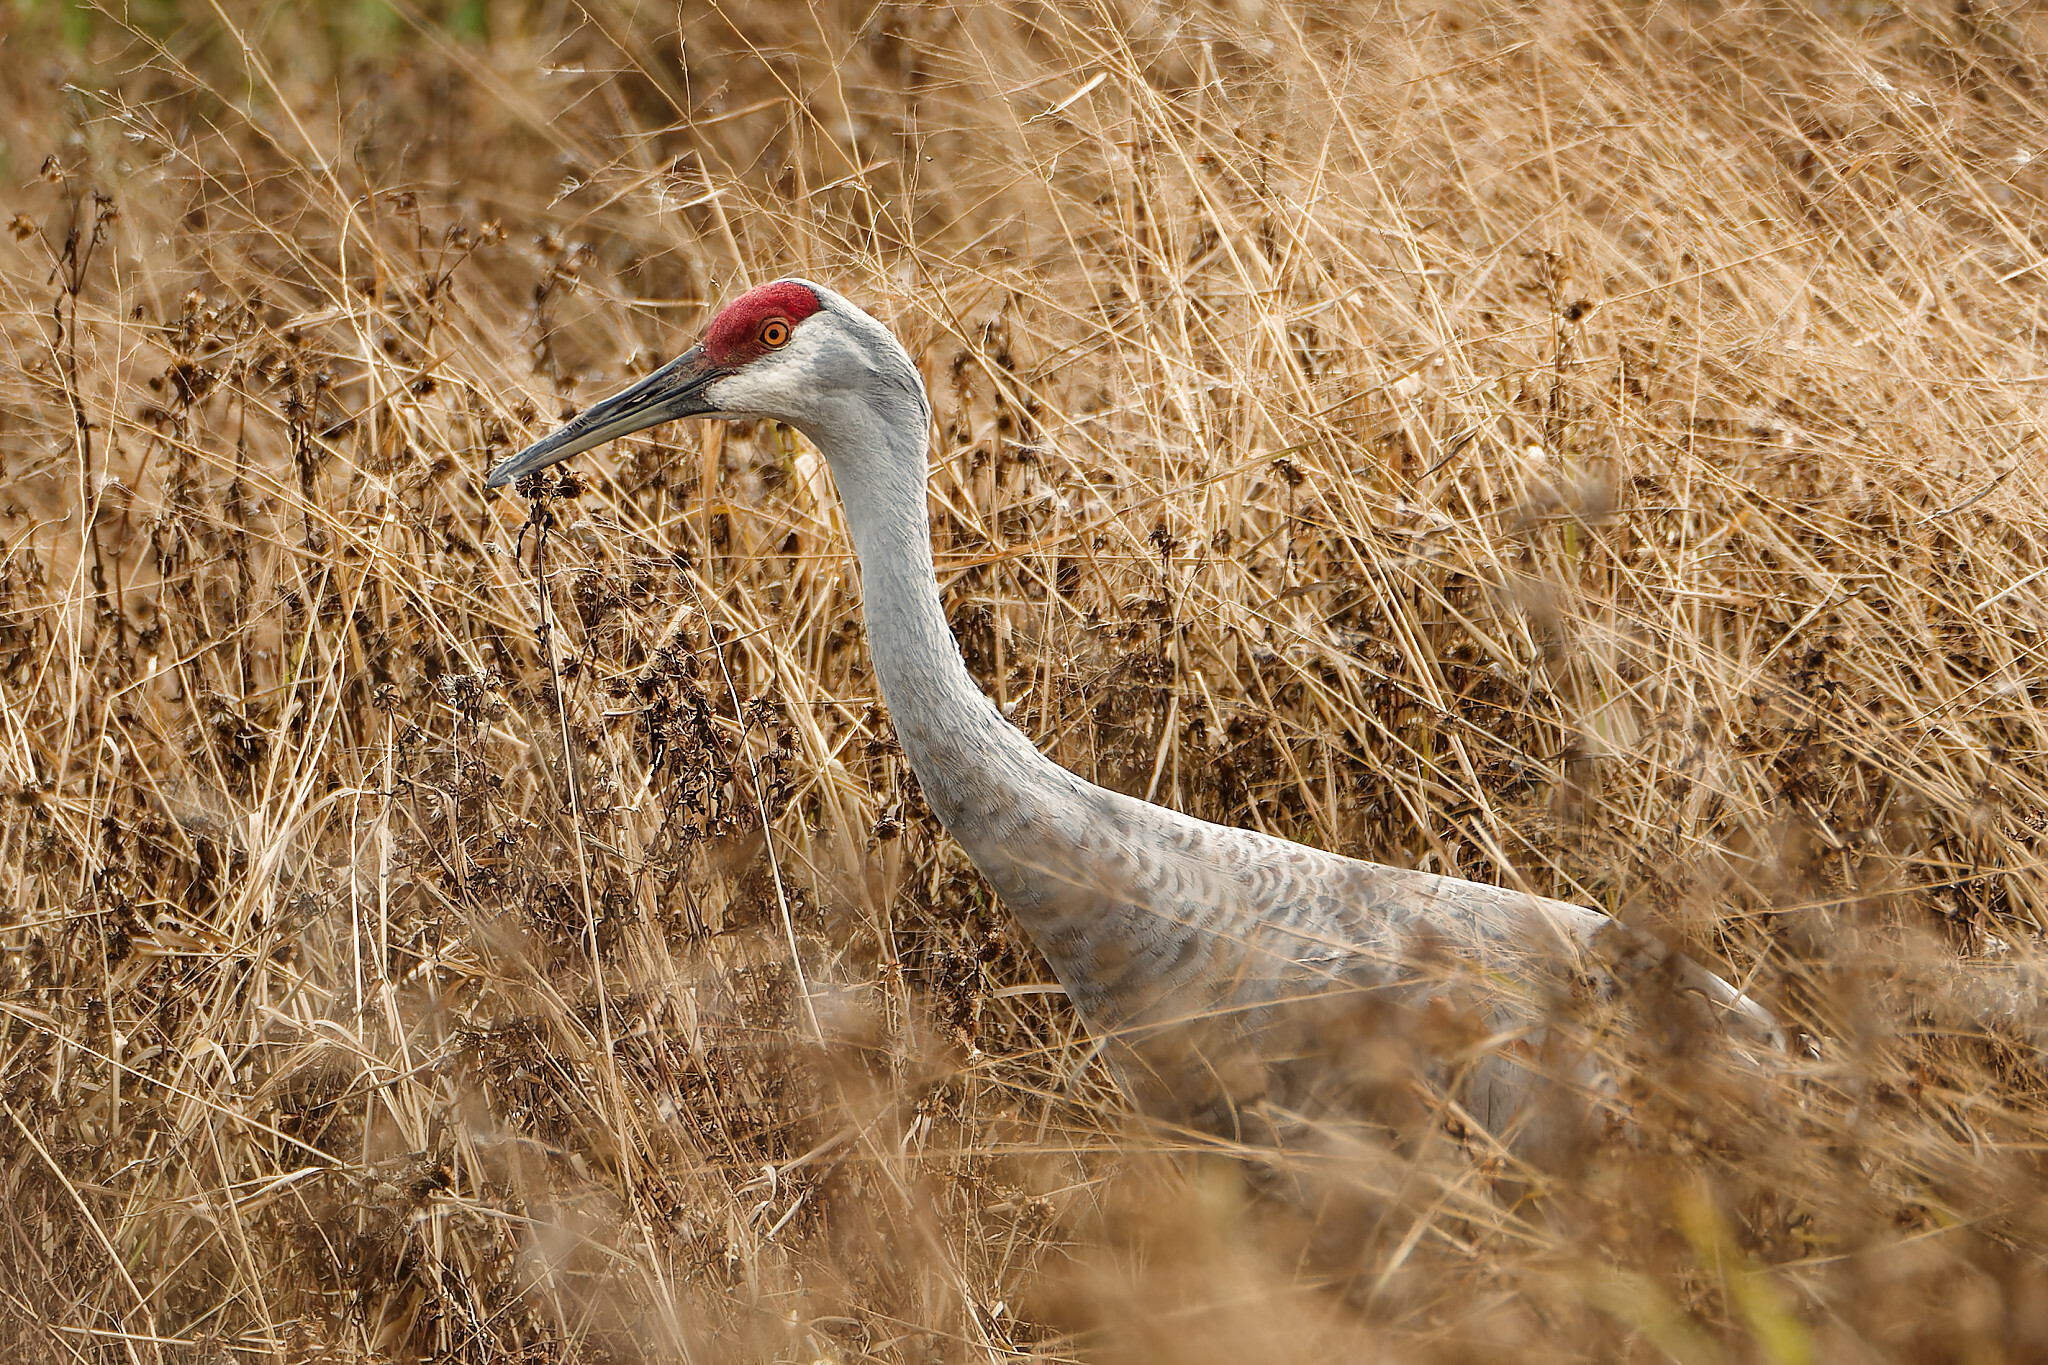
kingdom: Animalia
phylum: Chordata
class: Aves
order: Gruiformes
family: Gruidae
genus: Grus
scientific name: Grus canadensis
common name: Sandhill crane
